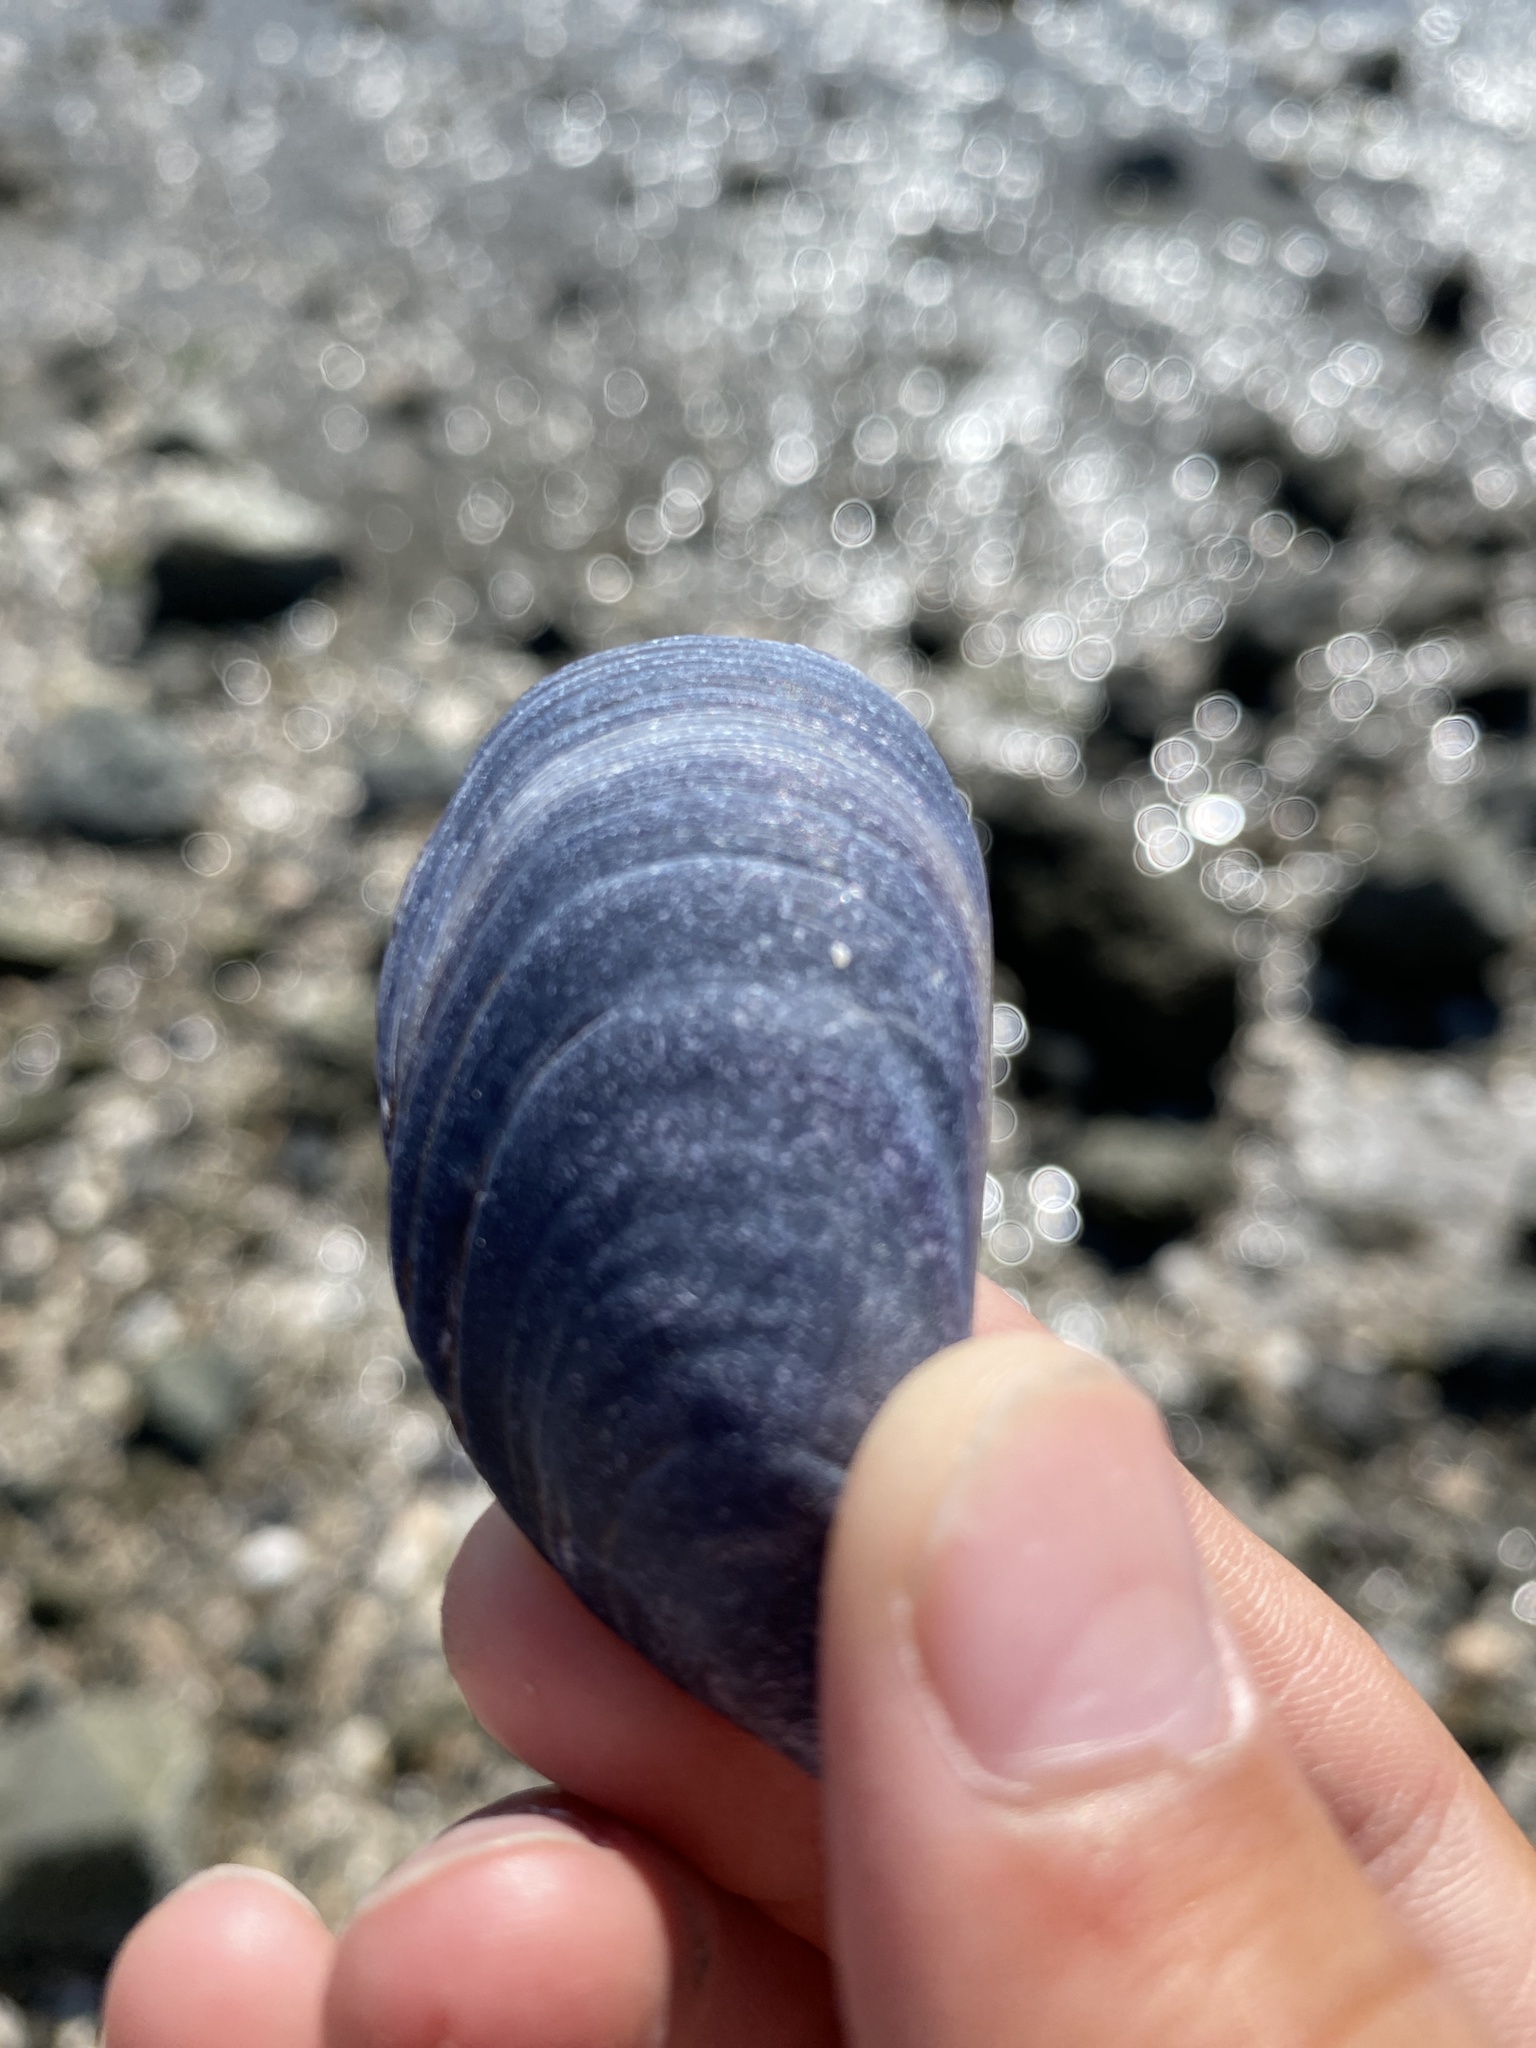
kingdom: Animalia
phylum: Mollusca
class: Bivalvia
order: Mytilida
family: Mytilidae
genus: Mytilus
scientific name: Mytilus
